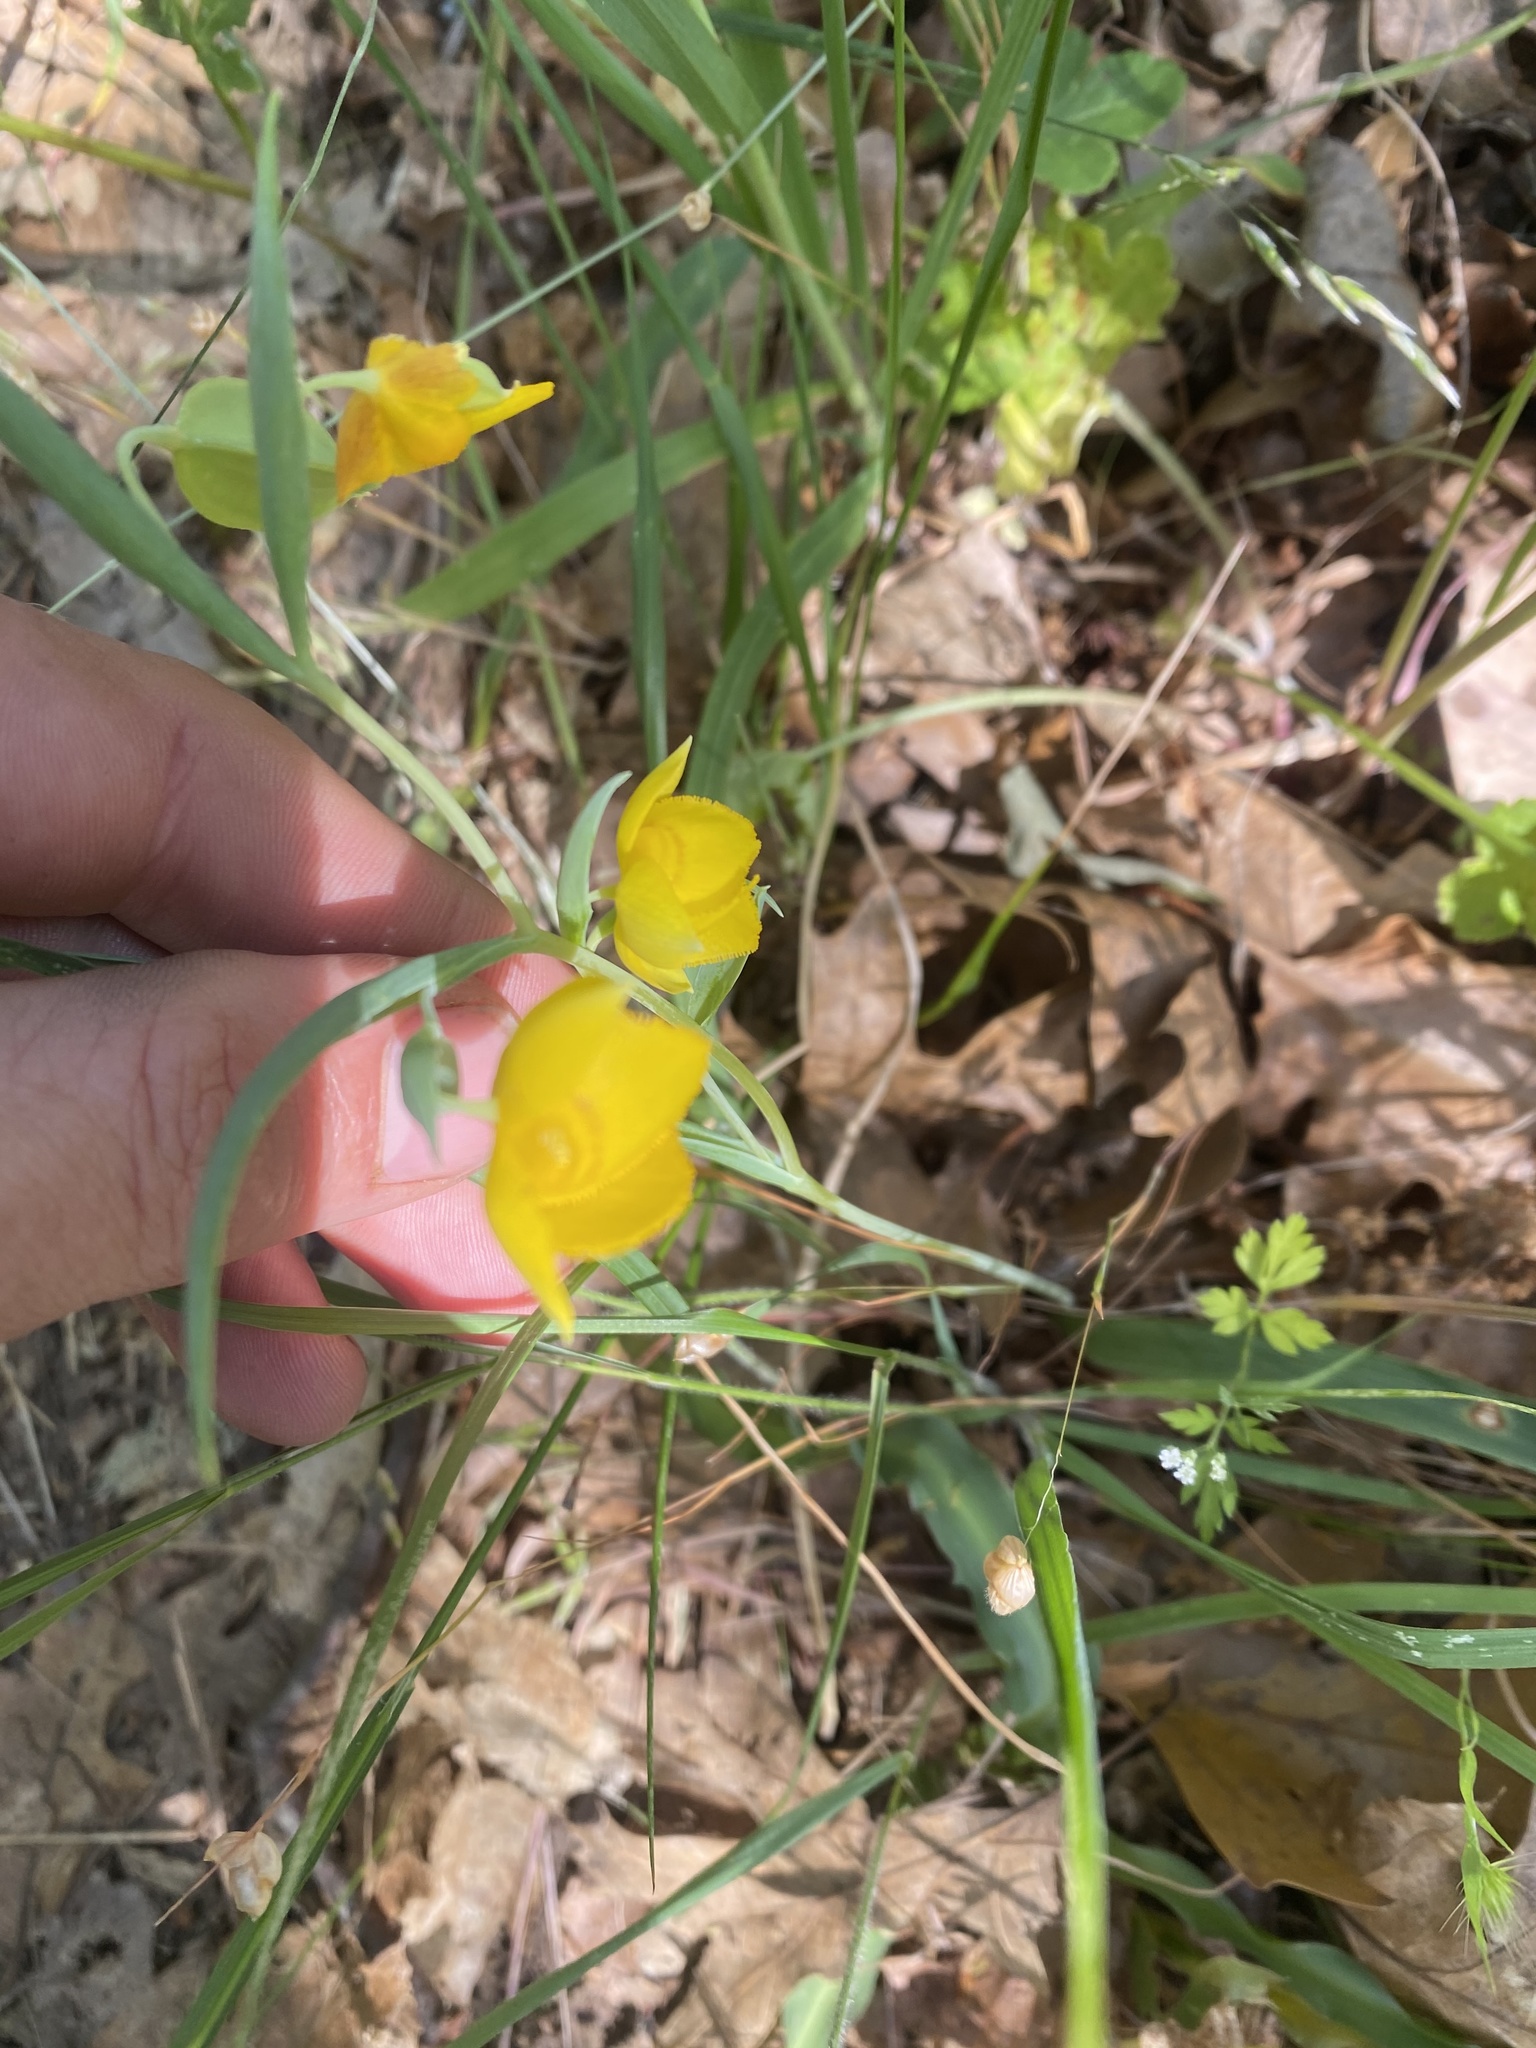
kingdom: Plantae
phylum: Tracheophyta
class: Liliopsida
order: Liliales
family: Liliaceae
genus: Calochortus
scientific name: Calochortus amabilis
